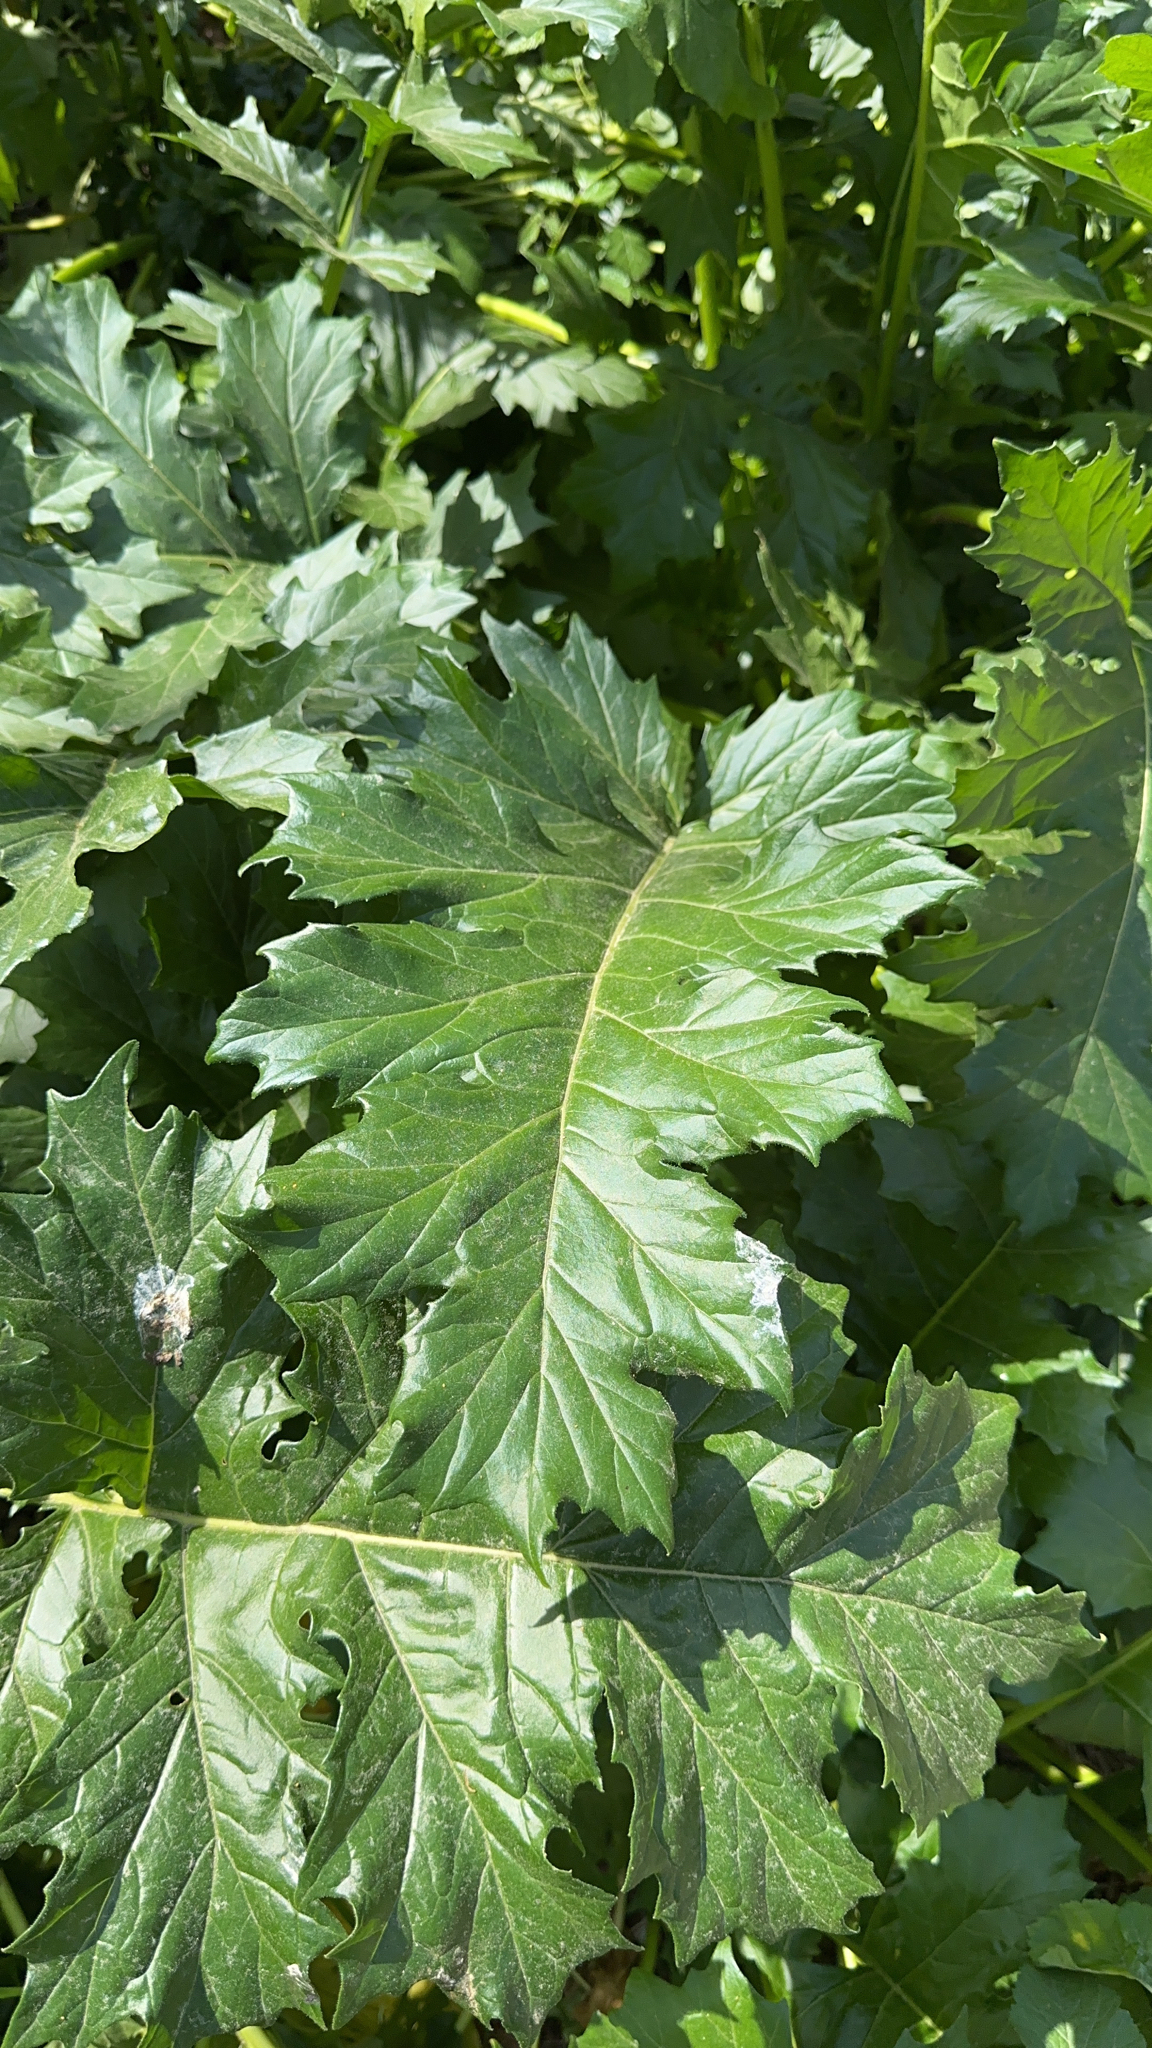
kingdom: Plantae
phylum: Tracheophyta
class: Magnoliopsida
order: Lamiales
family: Acanthaceae
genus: Acanthus
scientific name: Acanthus mollis
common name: Bear's-breech
